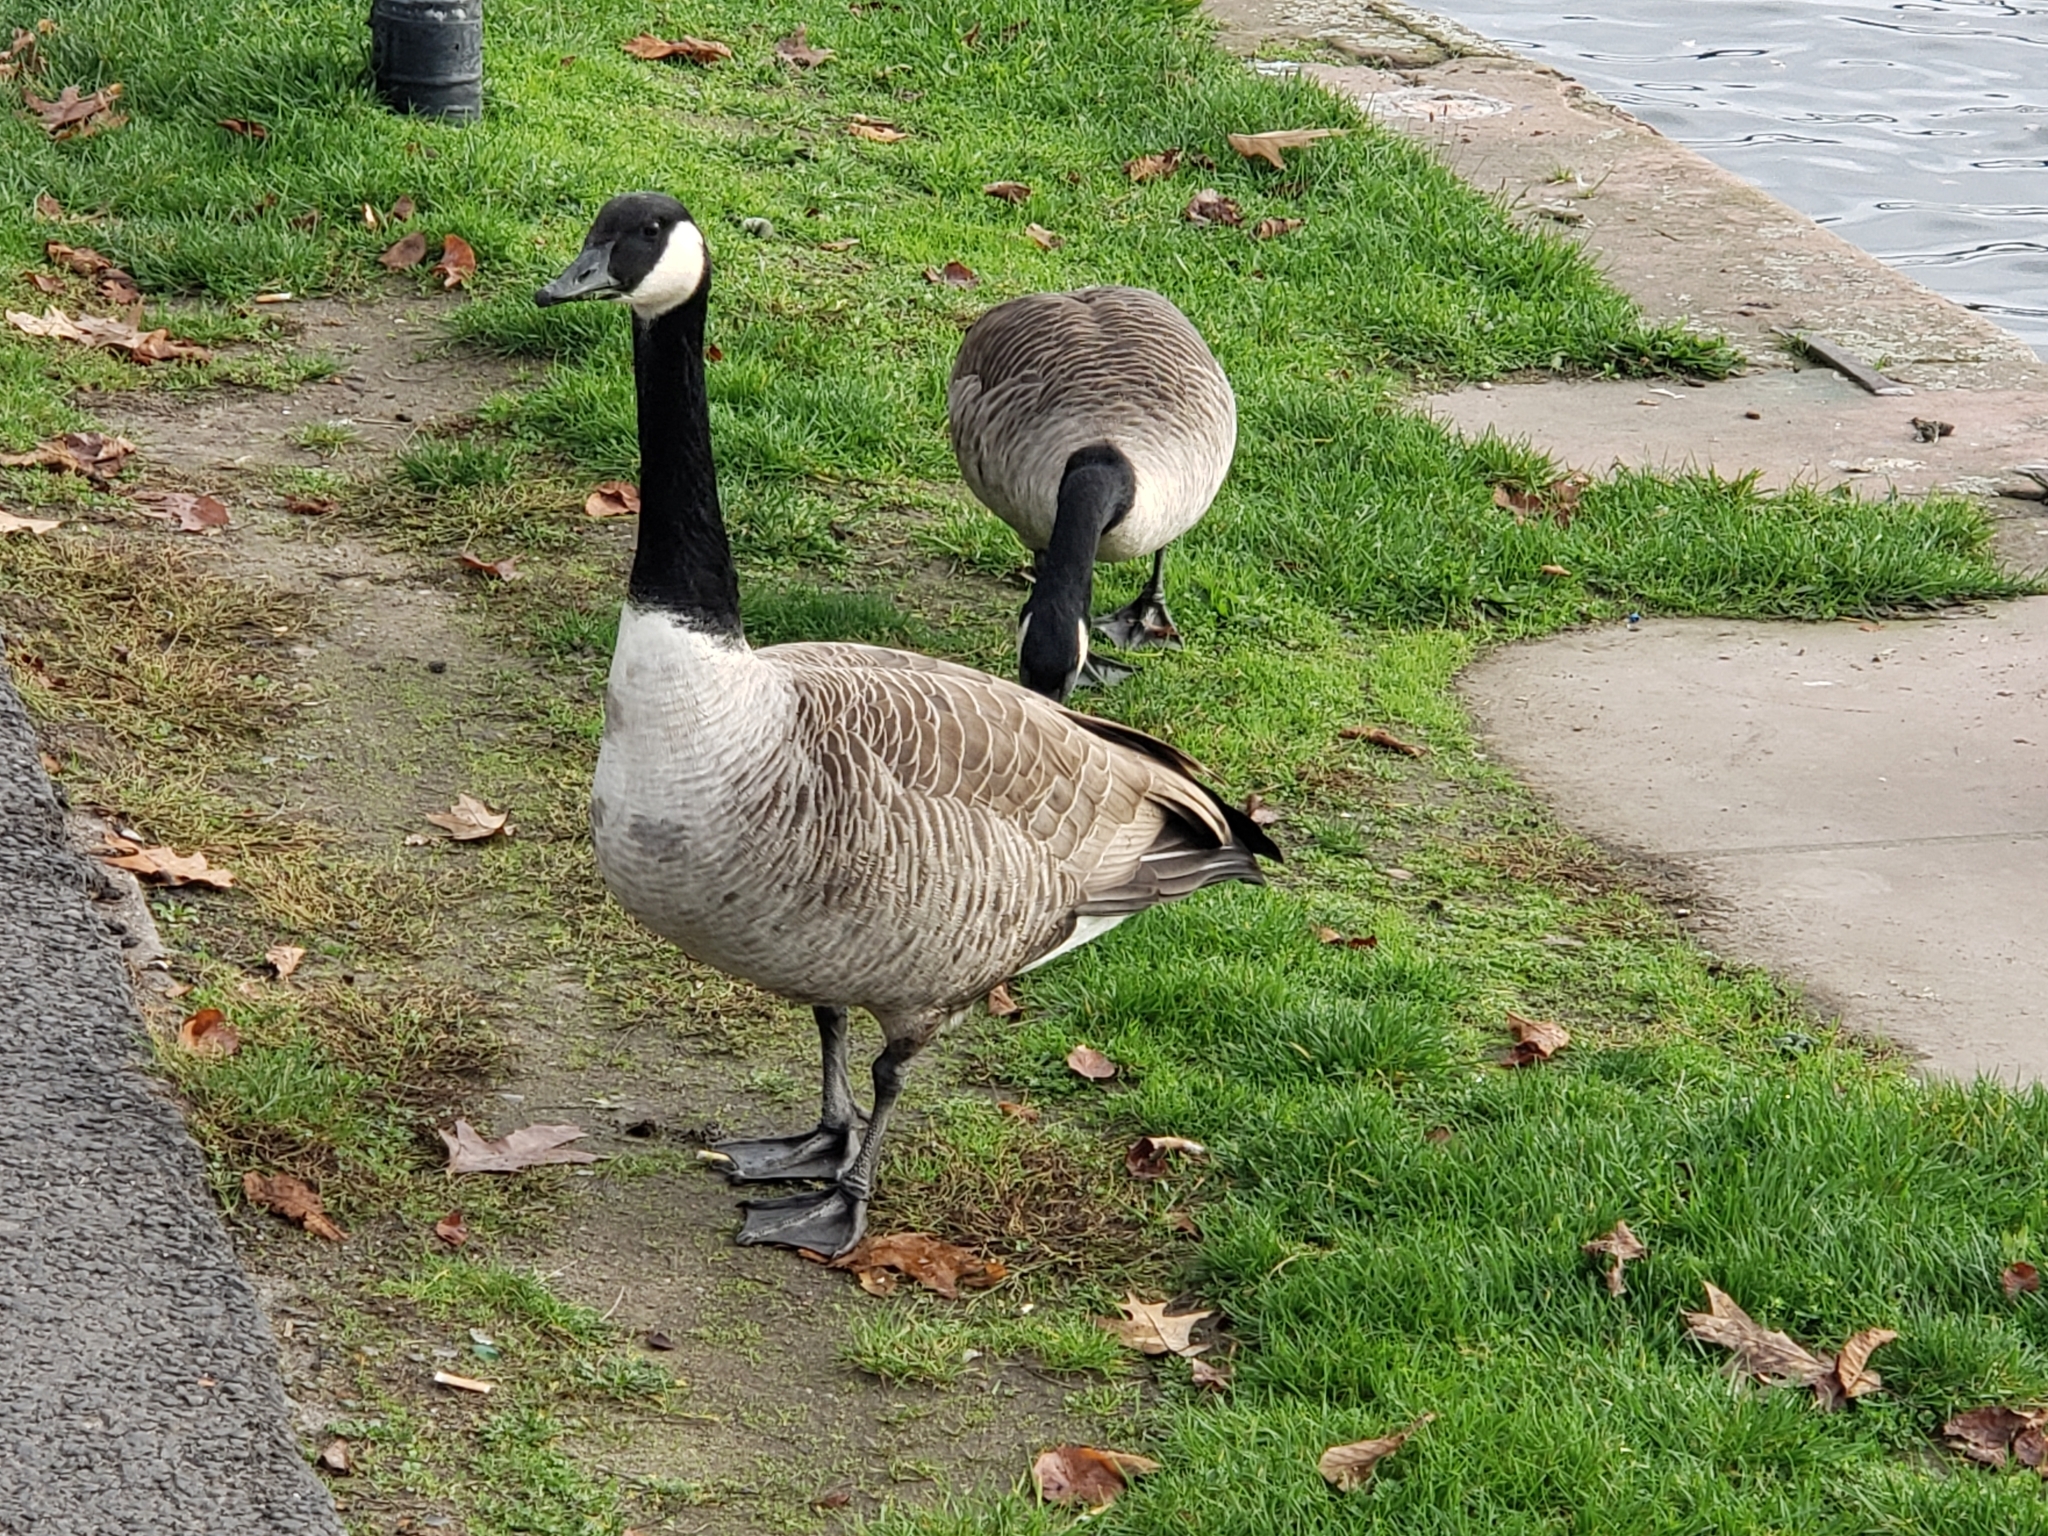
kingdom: Animalia
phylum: Chordata
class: Aves
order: Anseriformes
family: Anatidae
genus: Branta
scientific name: Branta canadensis
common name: Canada goose
